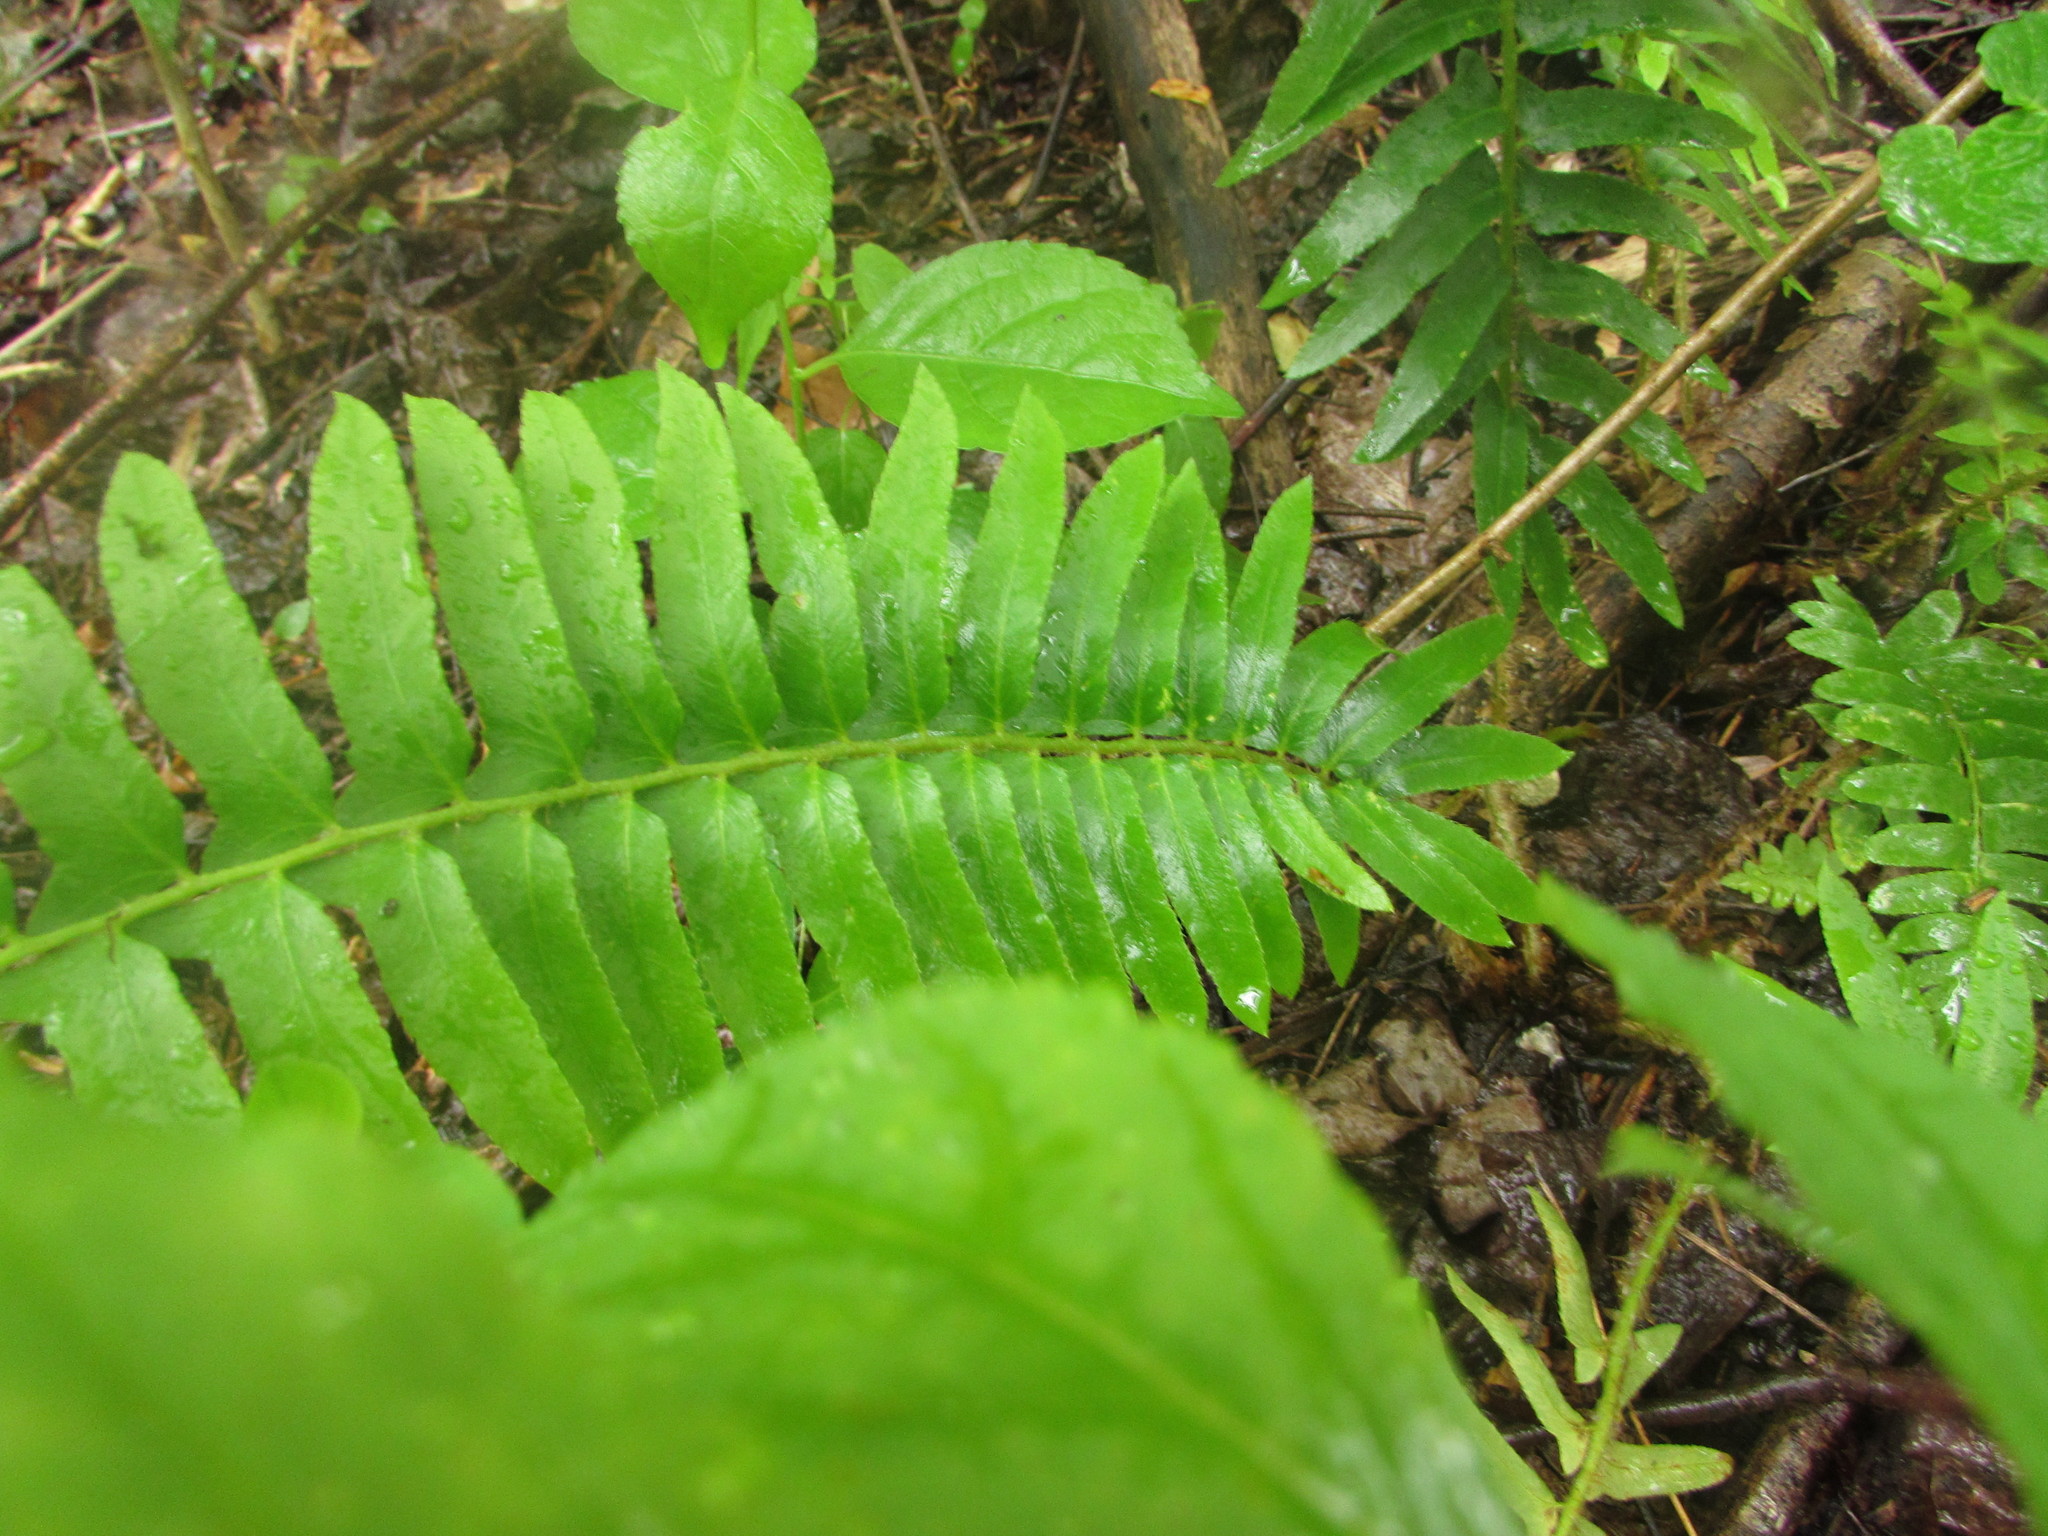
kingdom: Plantae
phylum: Tracheophyta
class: Polypodiopsida
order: Polypodiales
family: Dryopteridaceae
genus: Polystichum
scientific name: Polystichum acrostichoides
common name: Christmas fern
